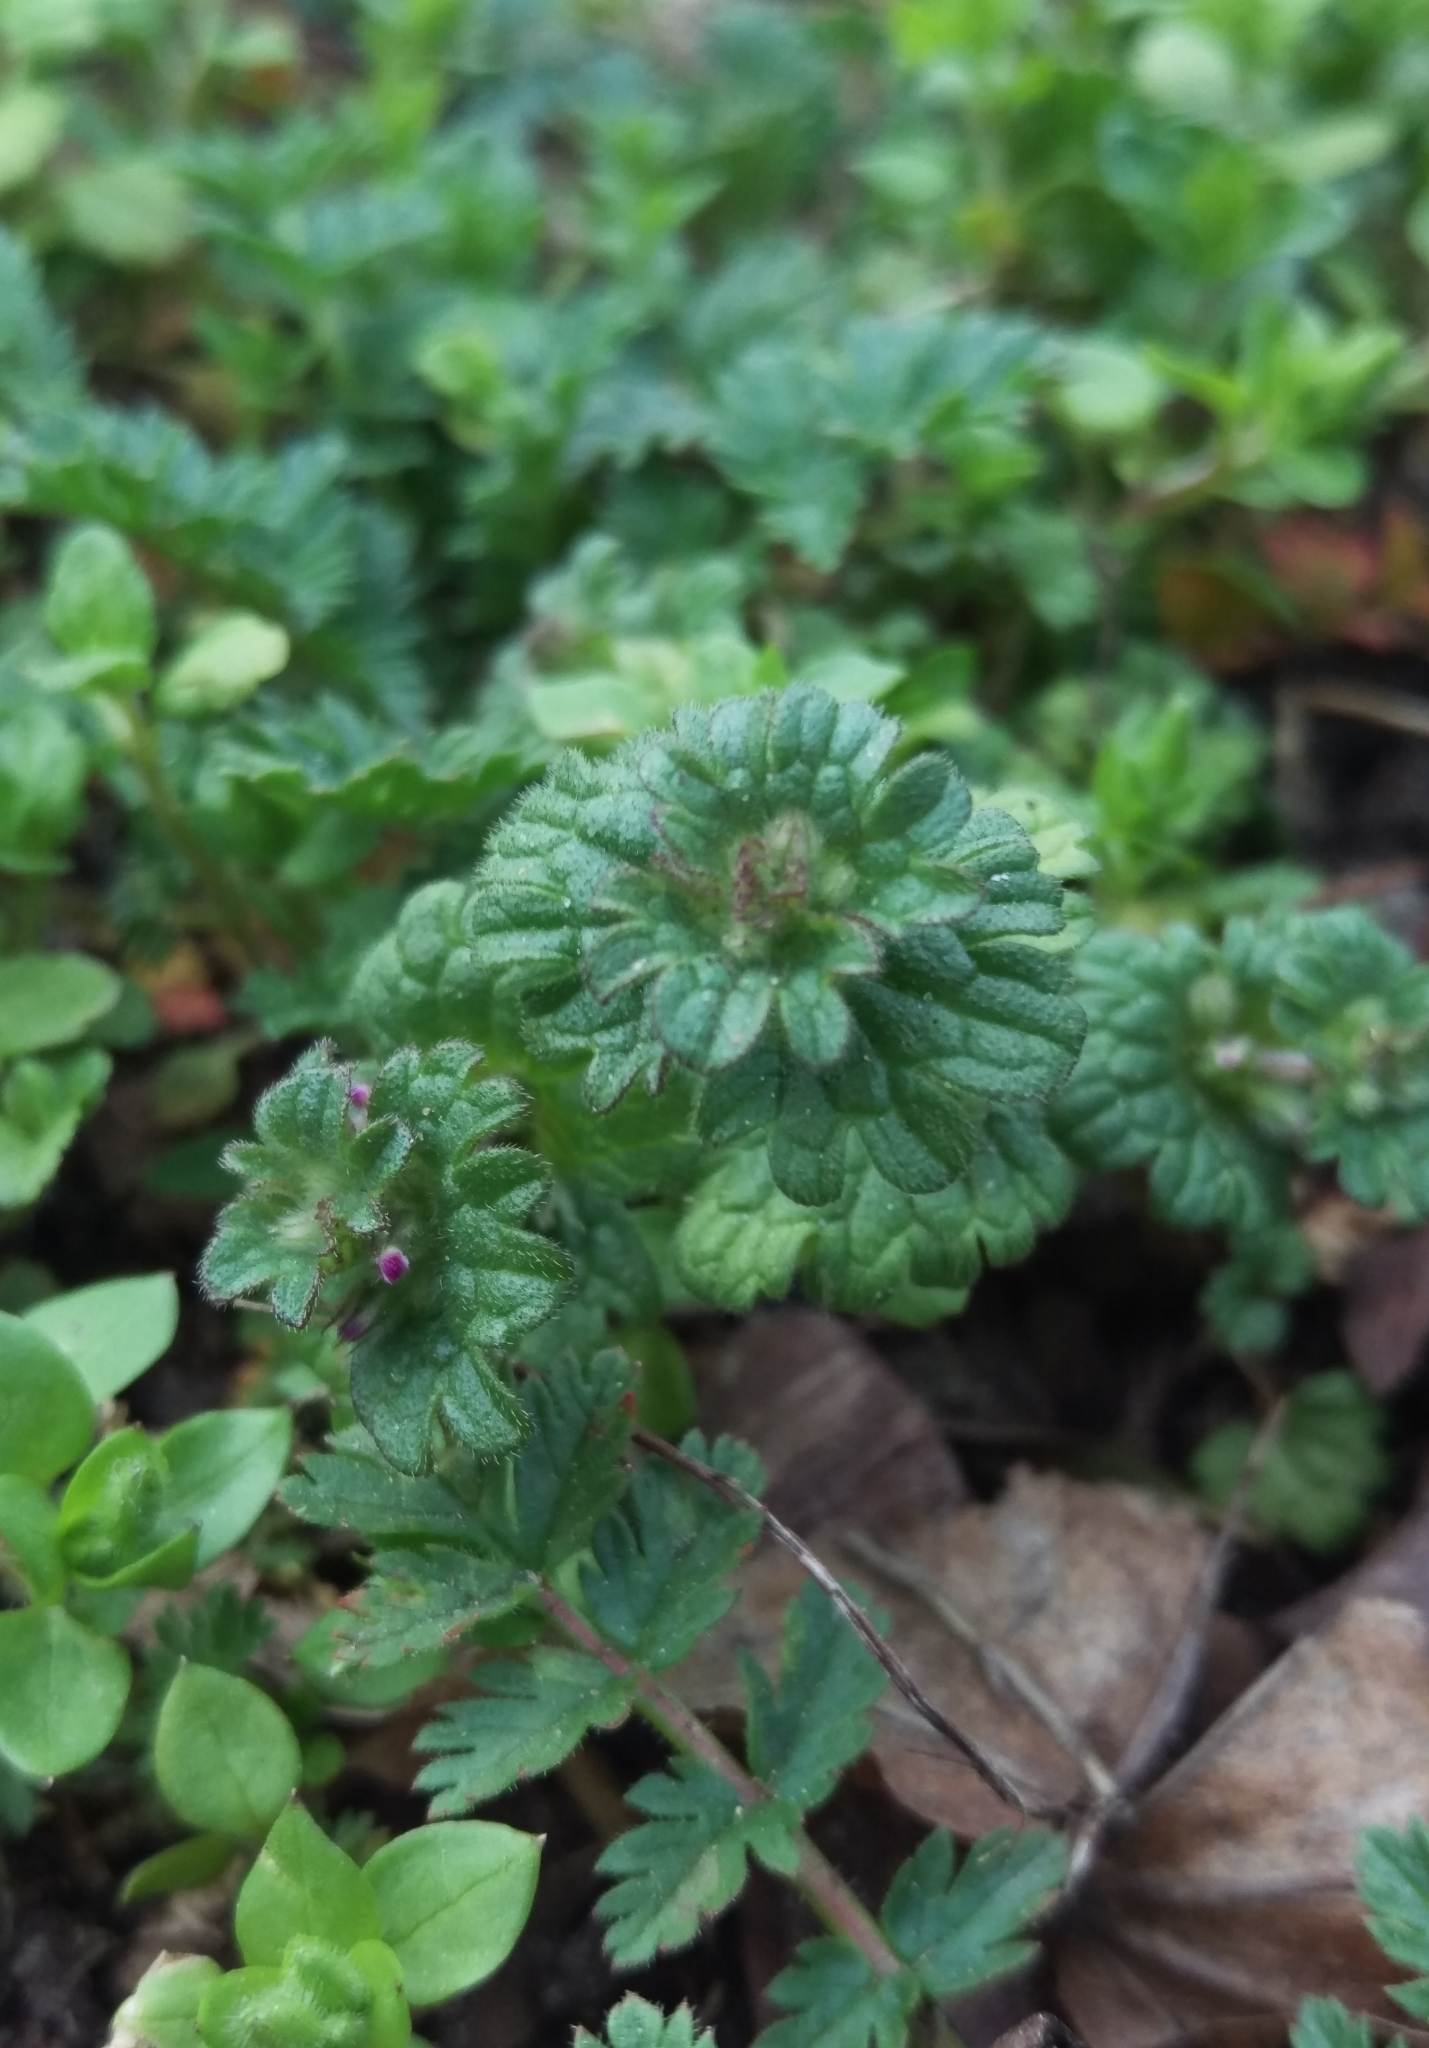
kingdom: Plantae
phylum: Tracheophyta
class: Magnoliopsida
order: Lamiales
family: Lamiaceae
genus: Lamium
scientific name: Lamium amplexicaule
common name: Henbit dead-nettle
